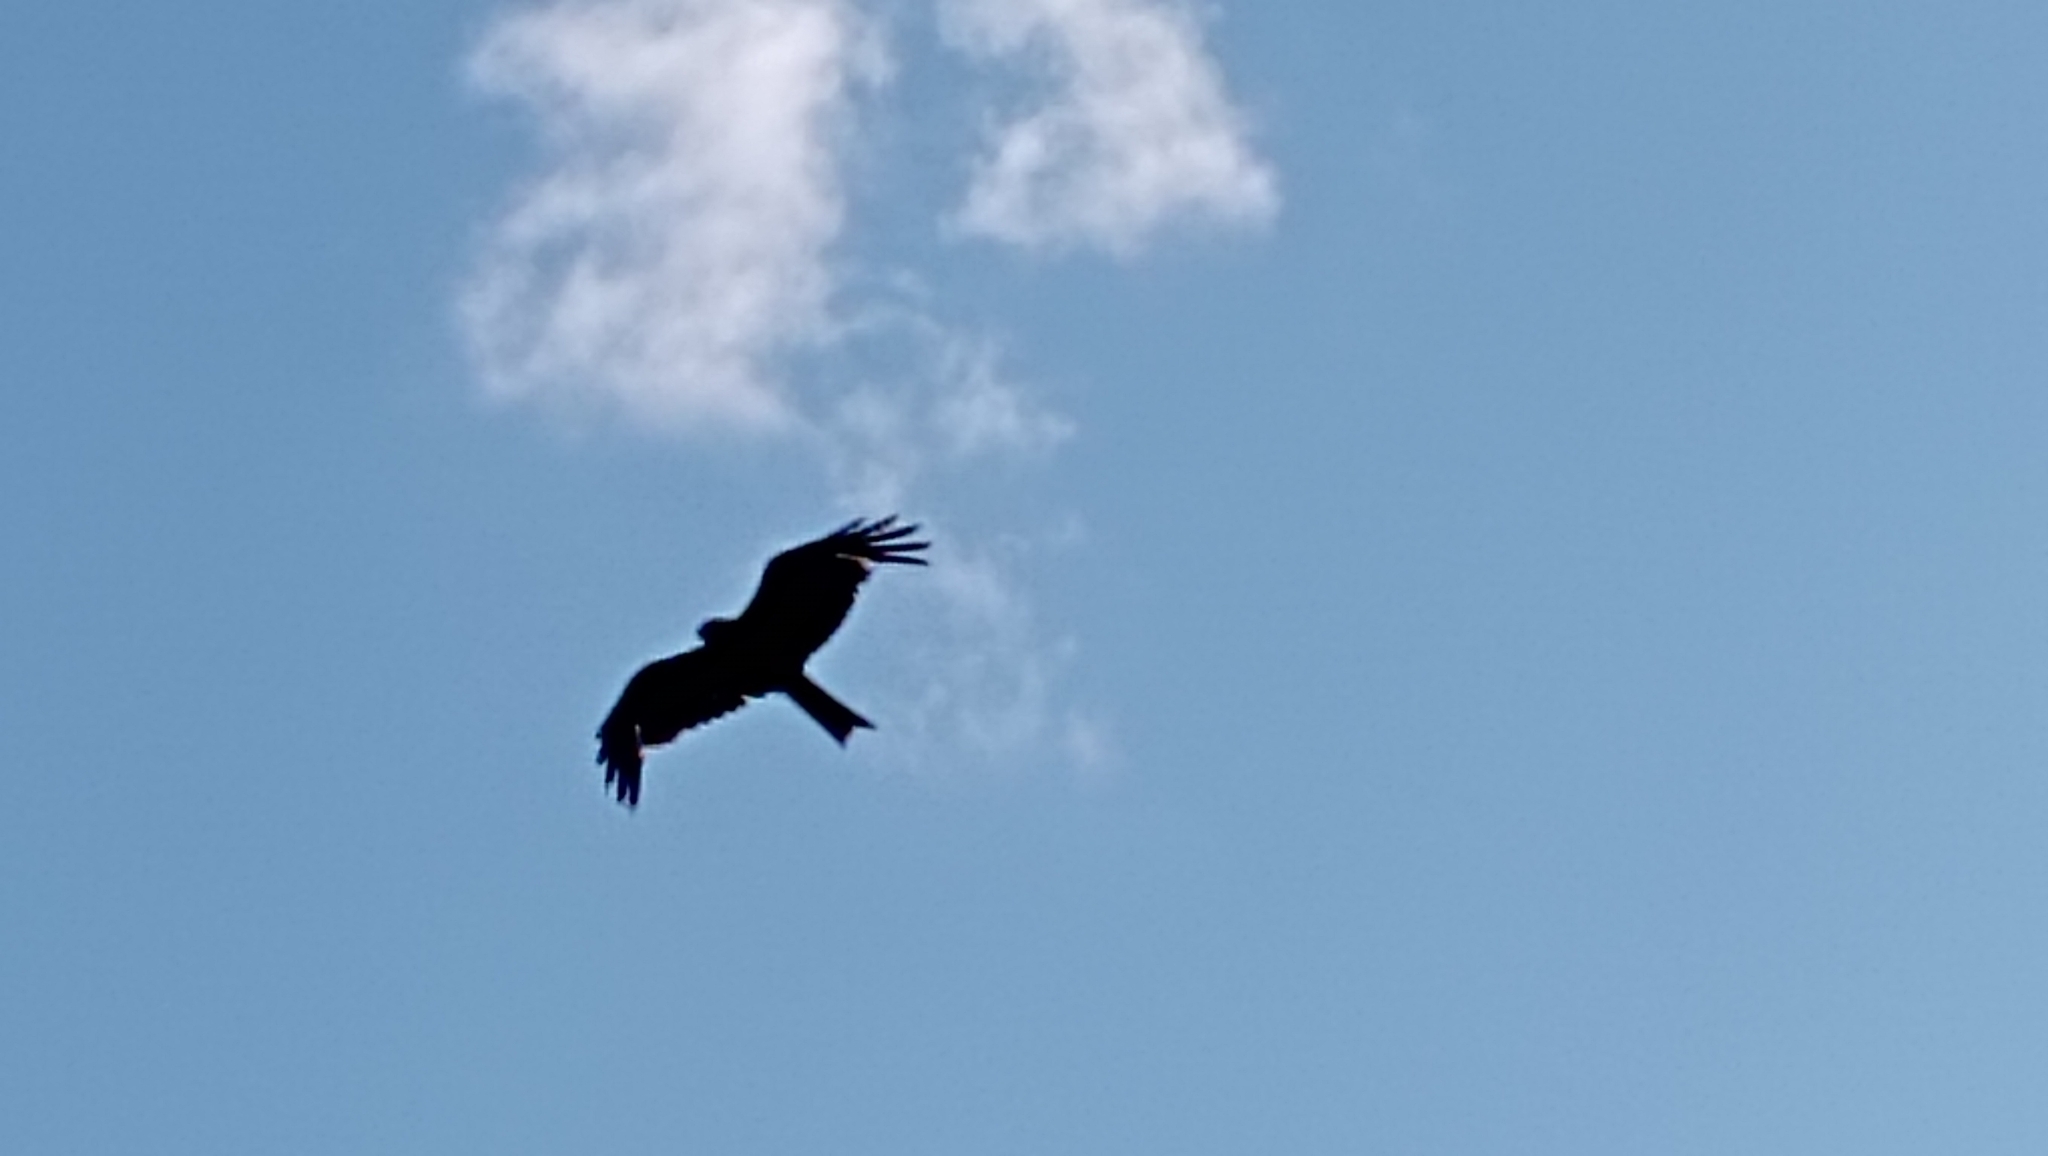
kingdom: Animalia
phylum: Chordata
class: Aves
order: Accipitriformes
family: Accipitridae
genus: Milvus
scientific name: Milvus migrans
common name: Black kite
